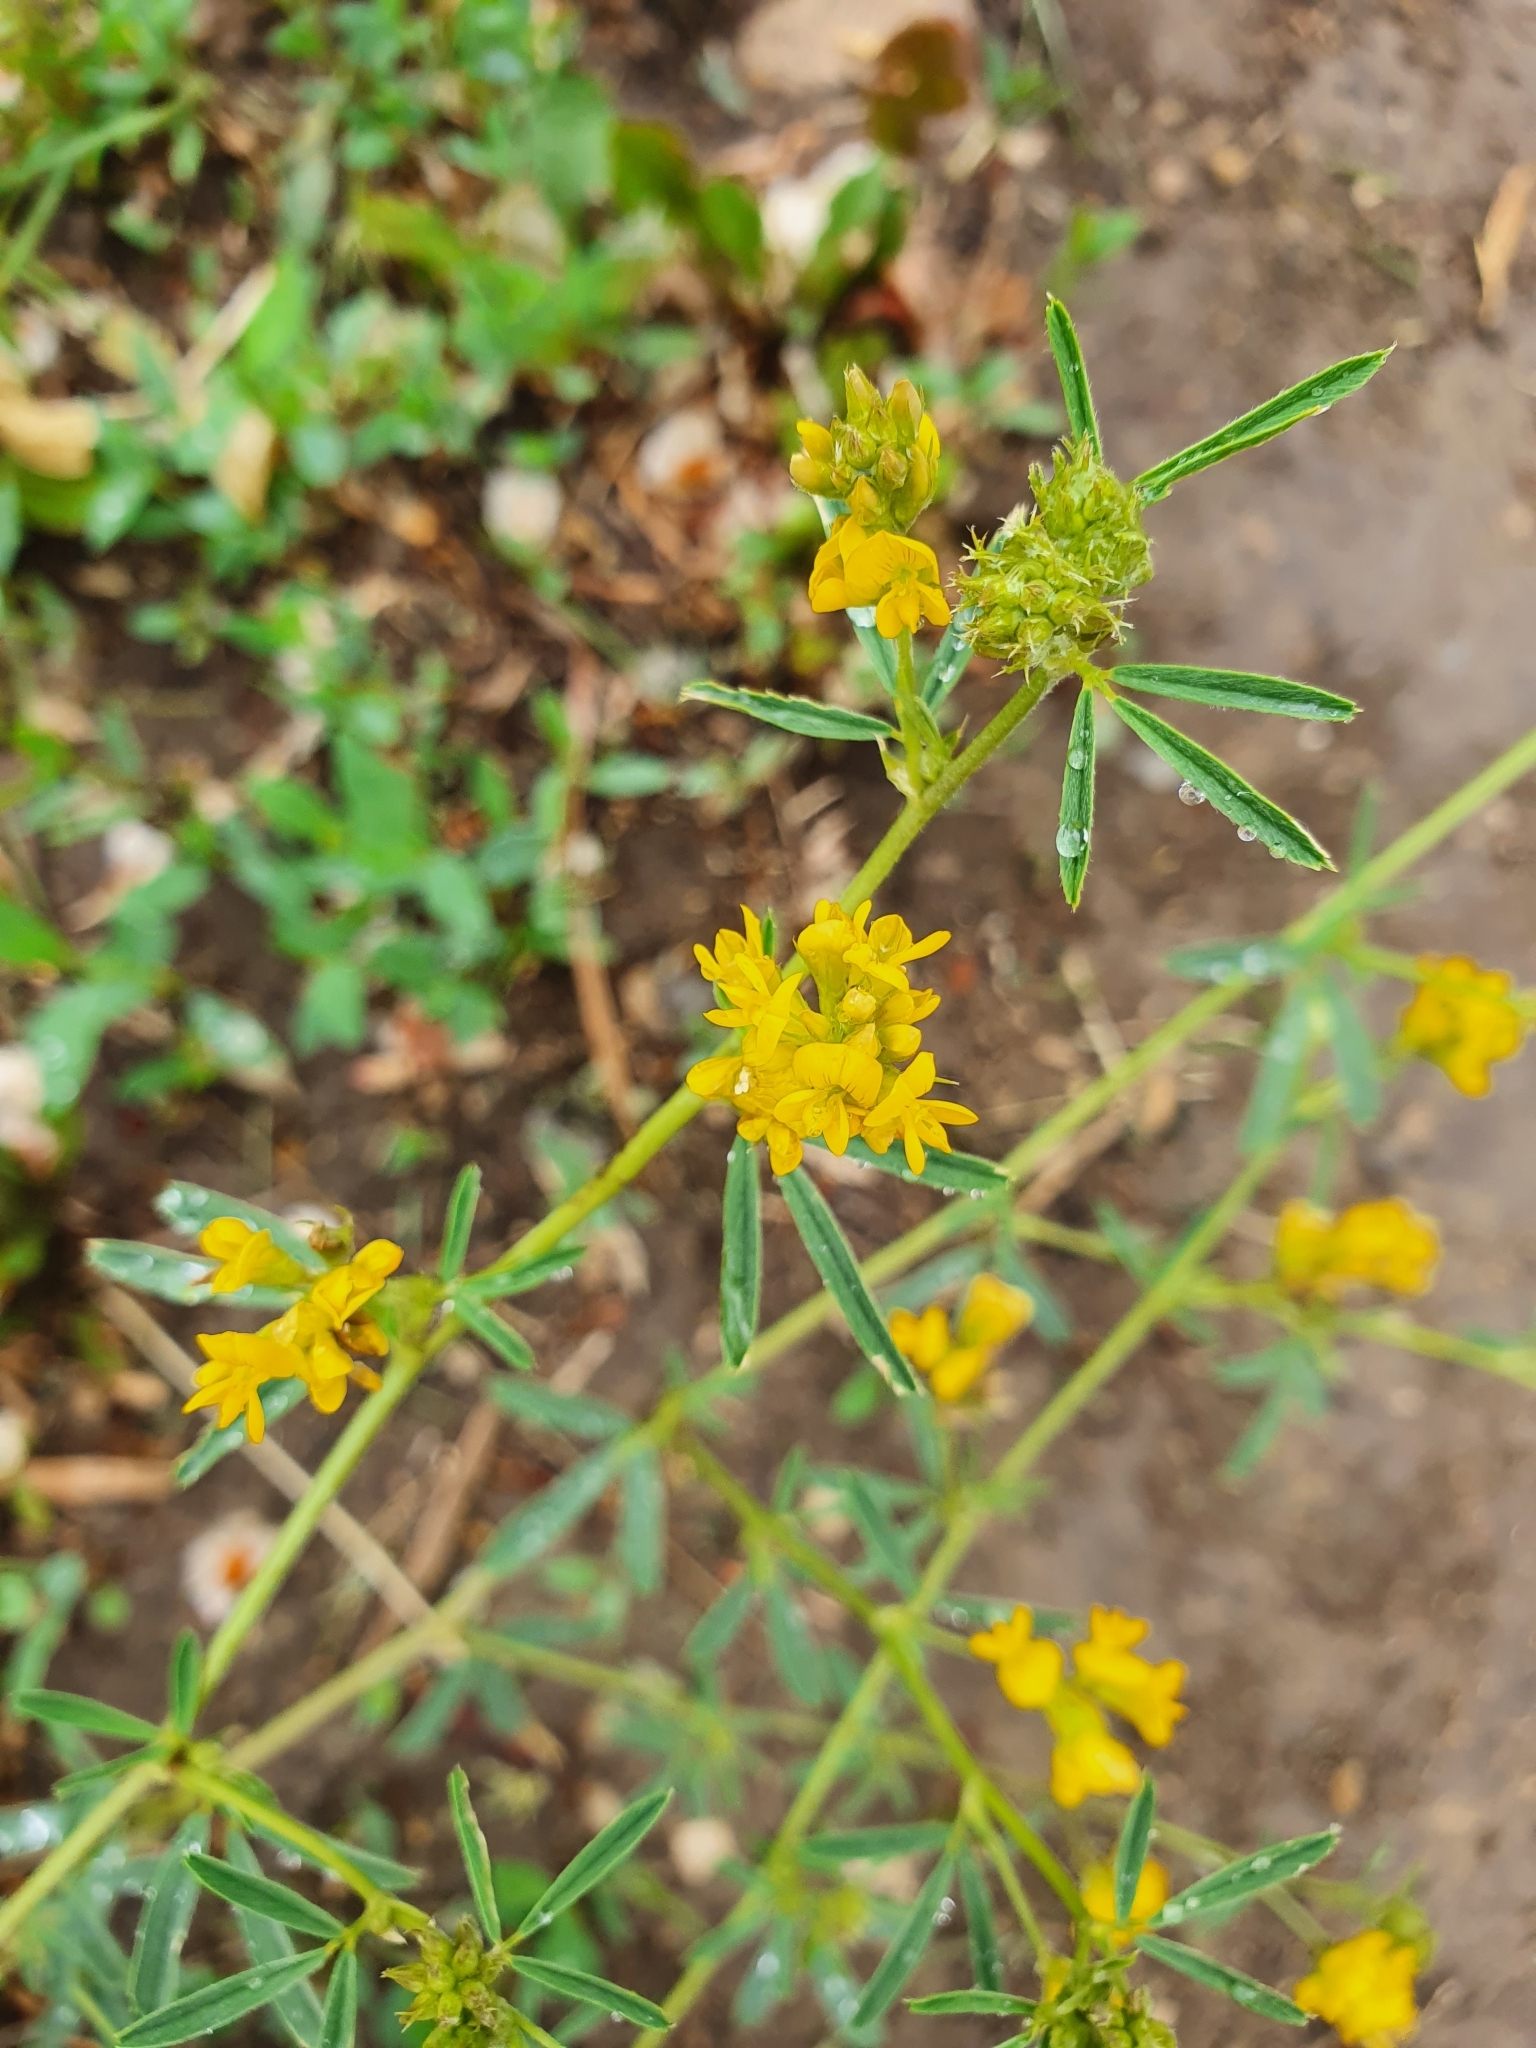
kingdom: Plantae
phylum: Tracheophyta
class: Magnoliopsida
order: Fabales
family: Fabaceae
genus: Medicago
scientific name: Medicago falcata
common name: Sickle medick
